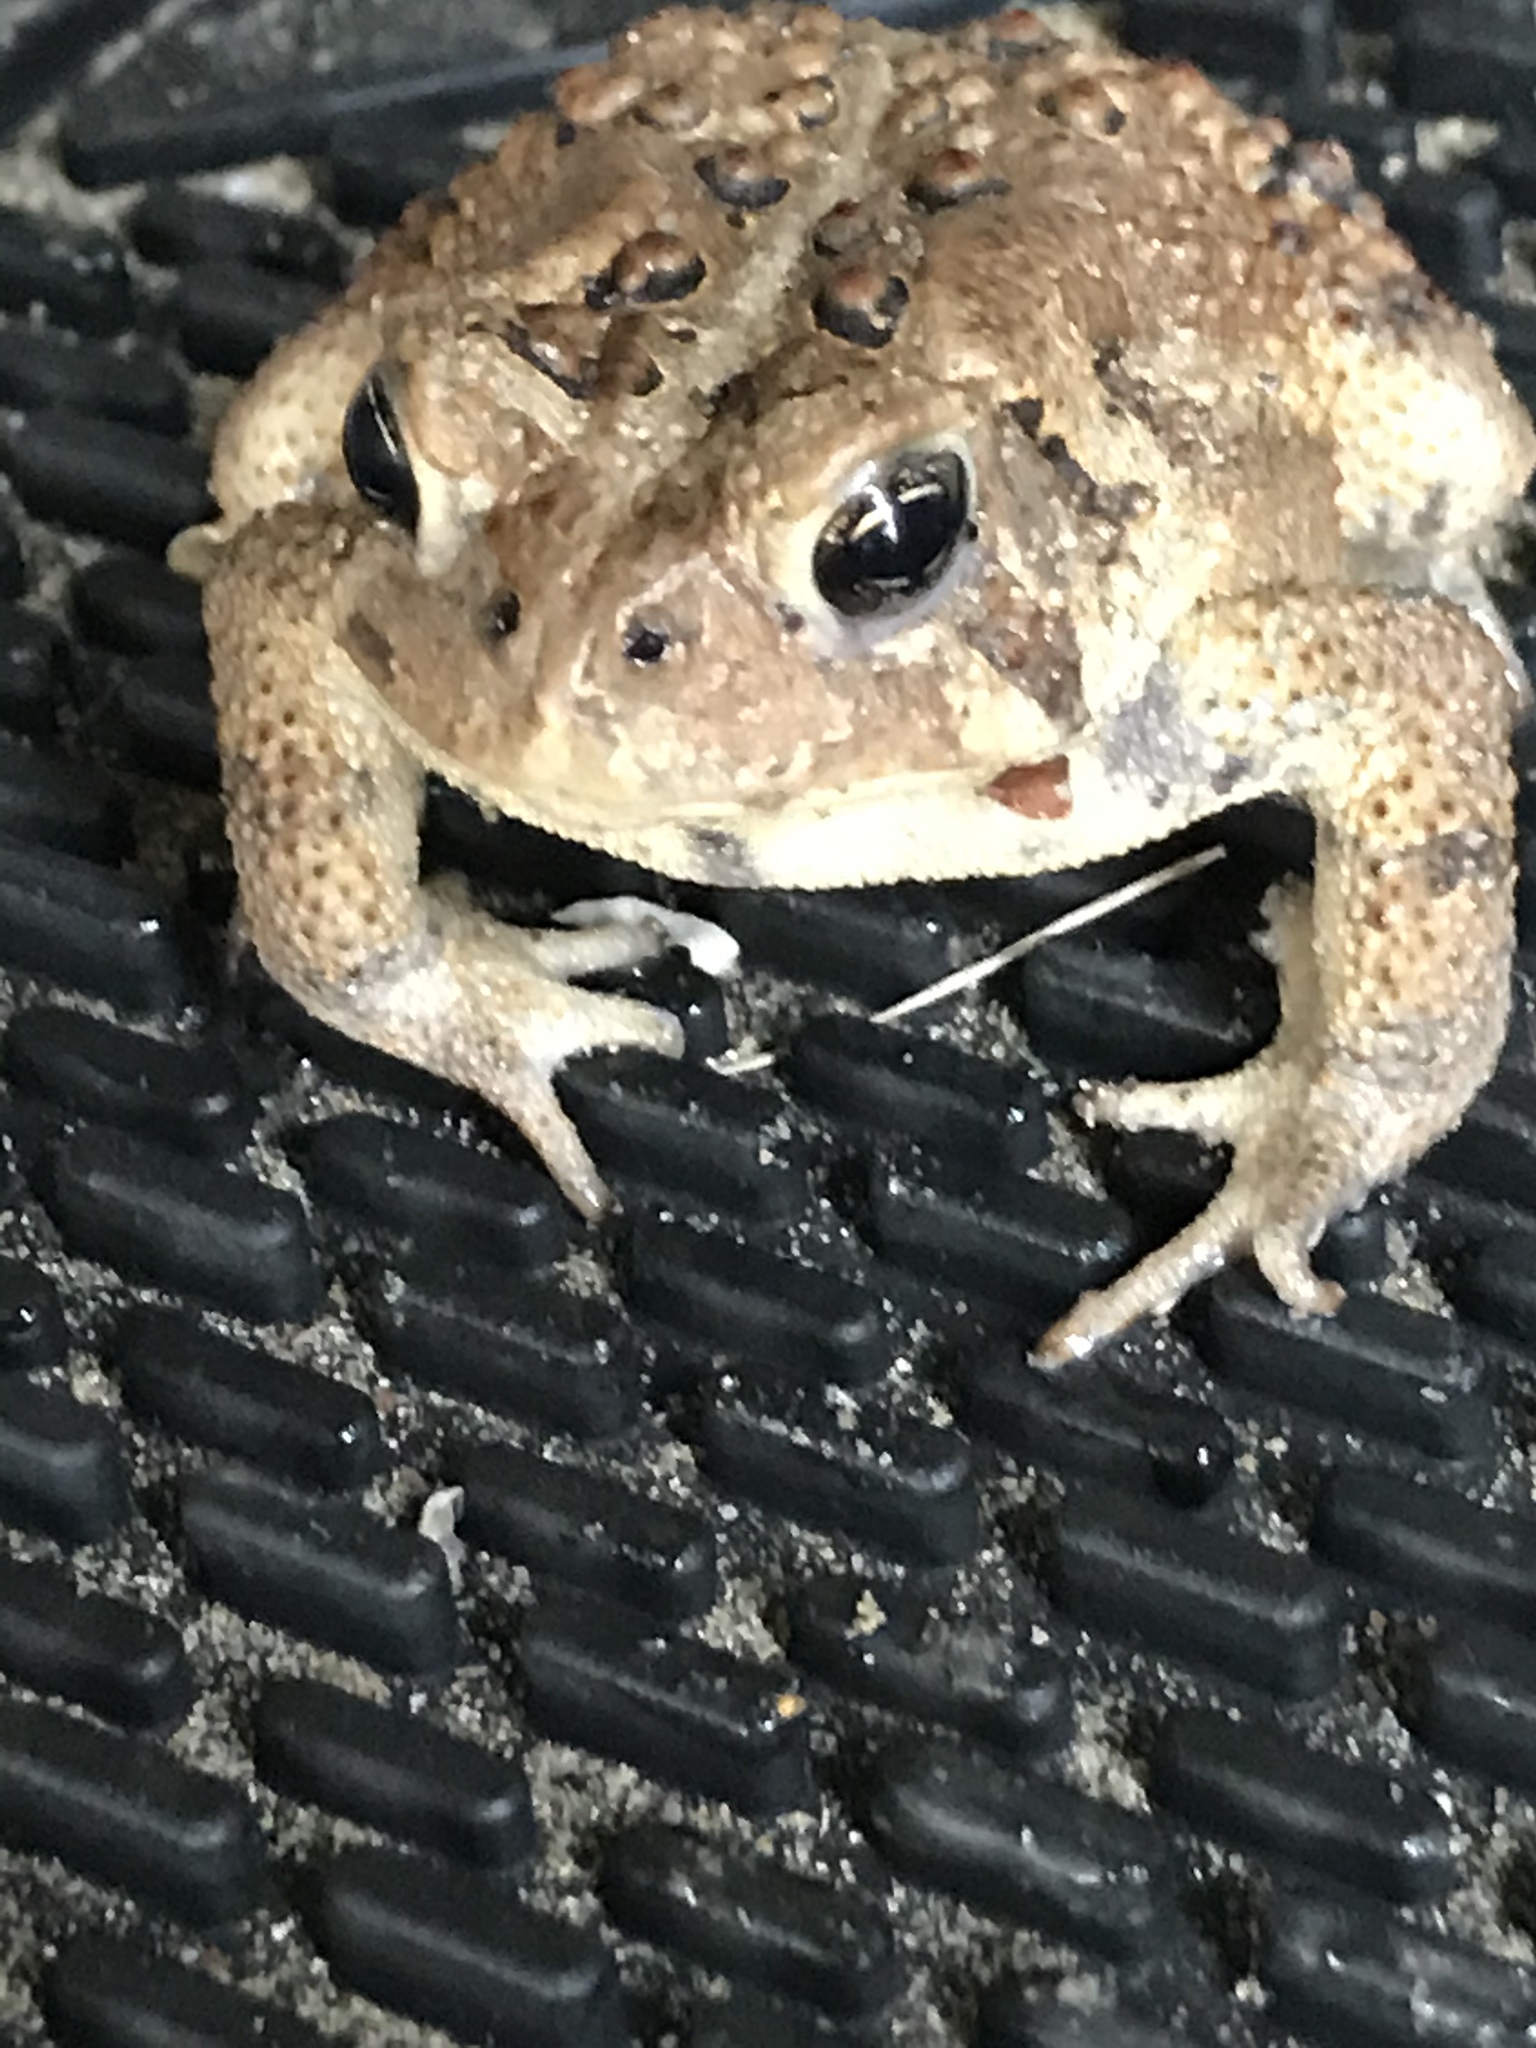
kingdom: Animalia
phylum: Chordata
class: Amphibia
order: Anura
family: Bufonidae
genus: Anaxyrus
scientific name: Anaxyrus americanus
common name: American toad
